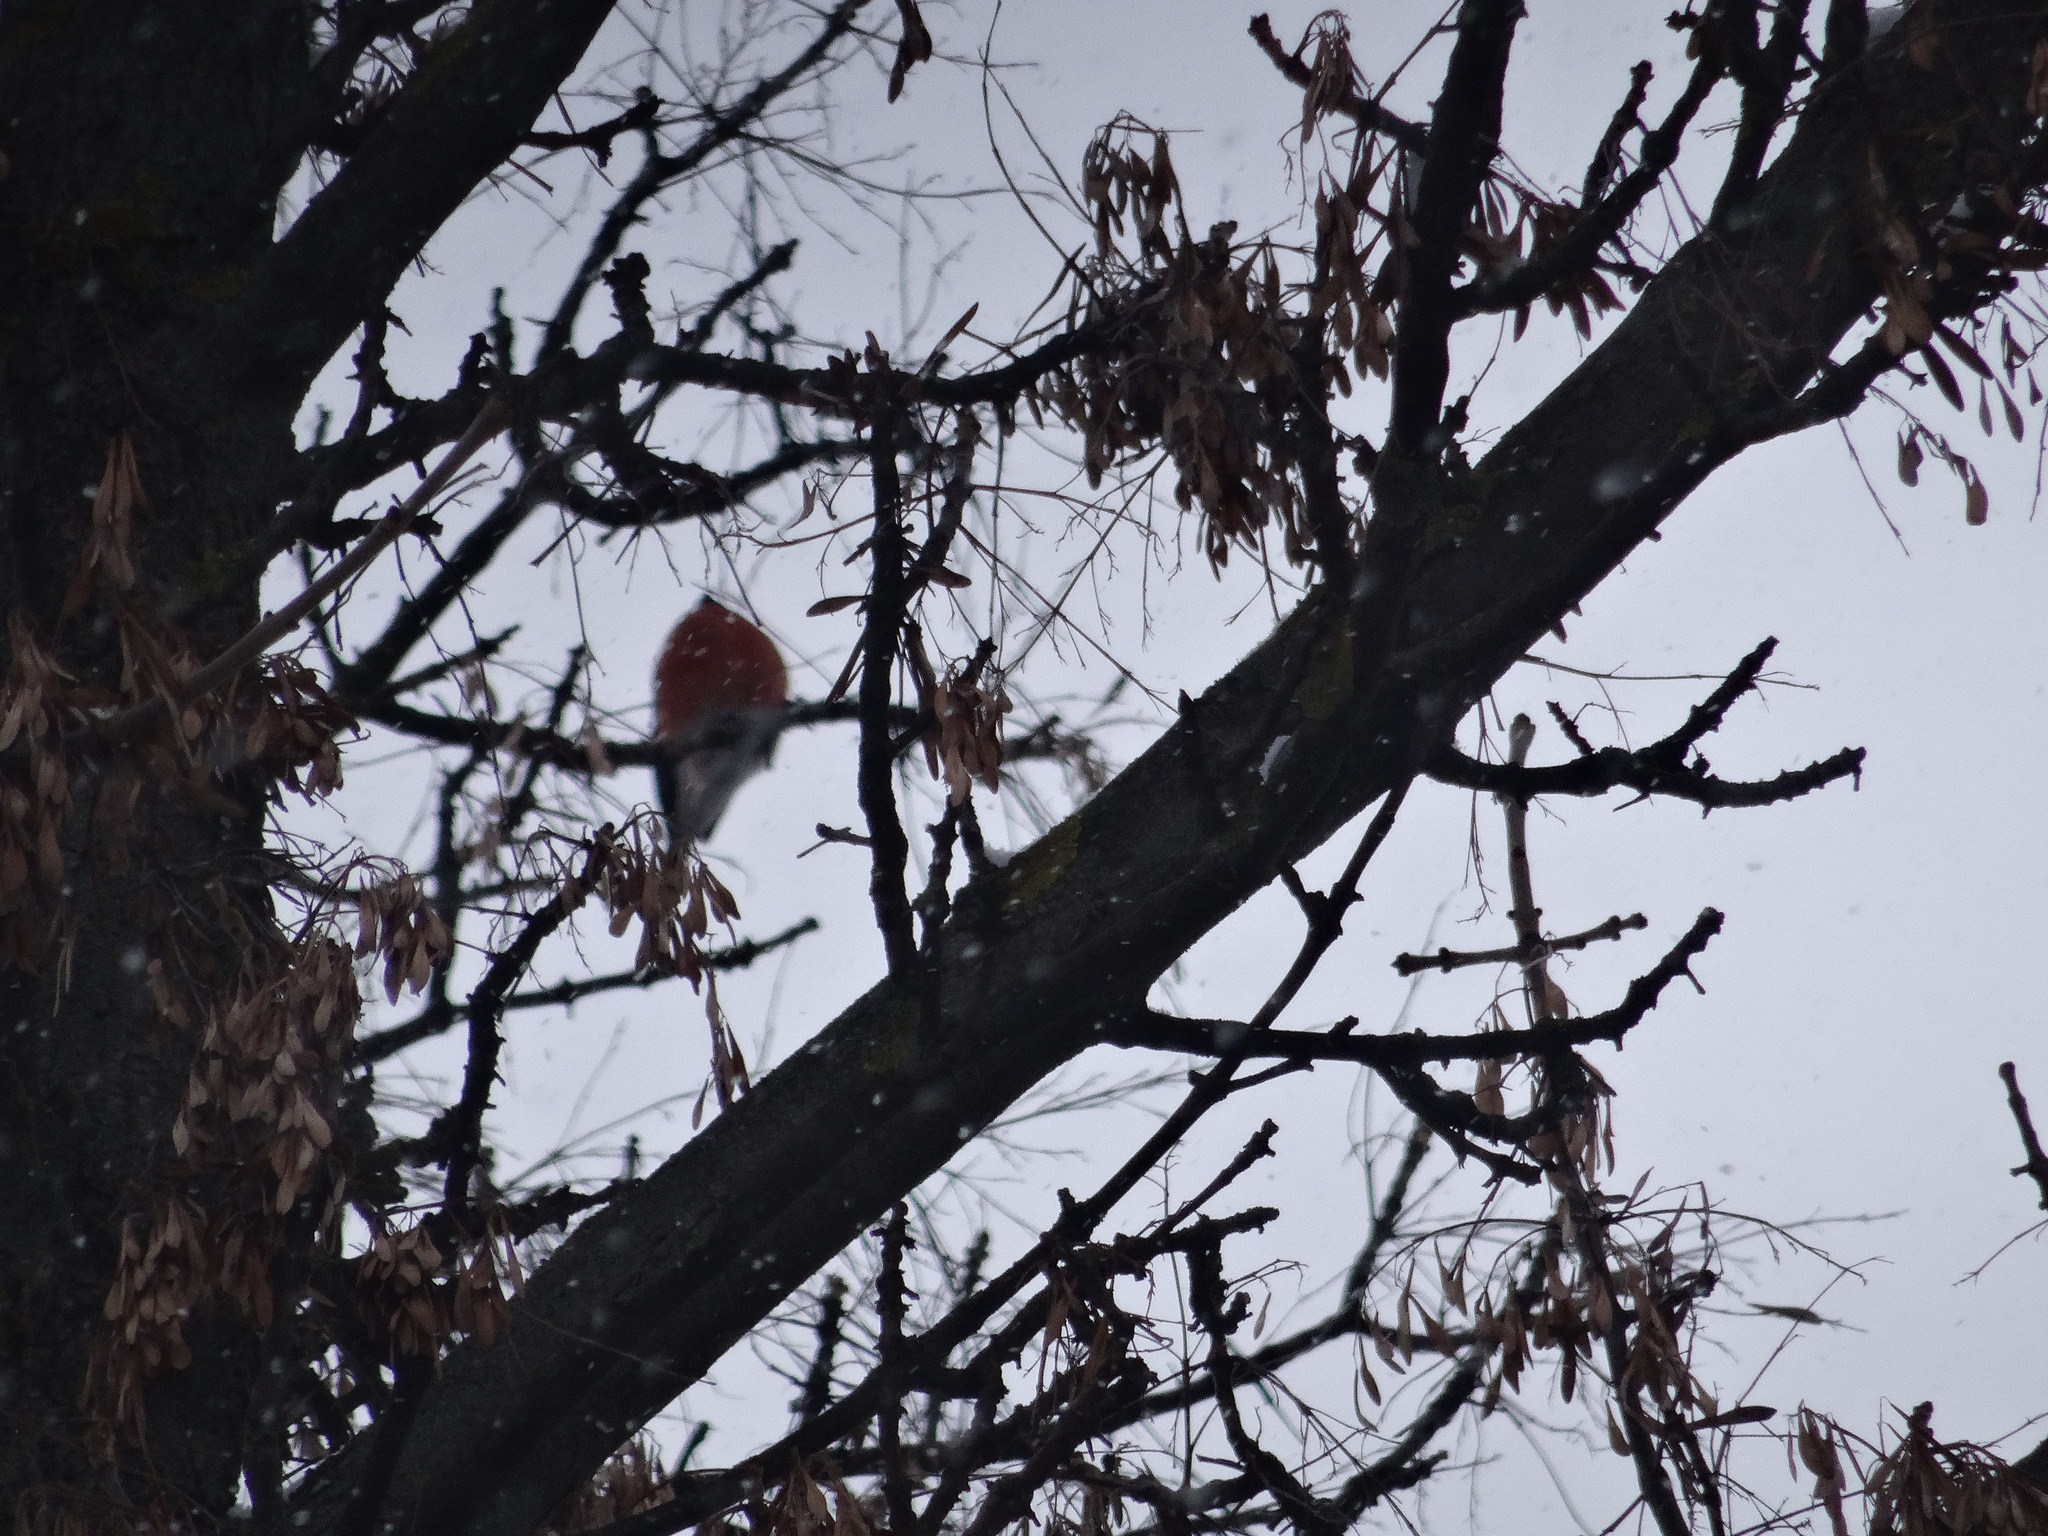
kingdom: Animalia
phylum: Chordata
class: Aves
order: Passeriformes
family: Fringillidae
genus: Pyrrhula
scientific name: Pyrrhula pyrrhula
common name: Eurasian bullfinch
